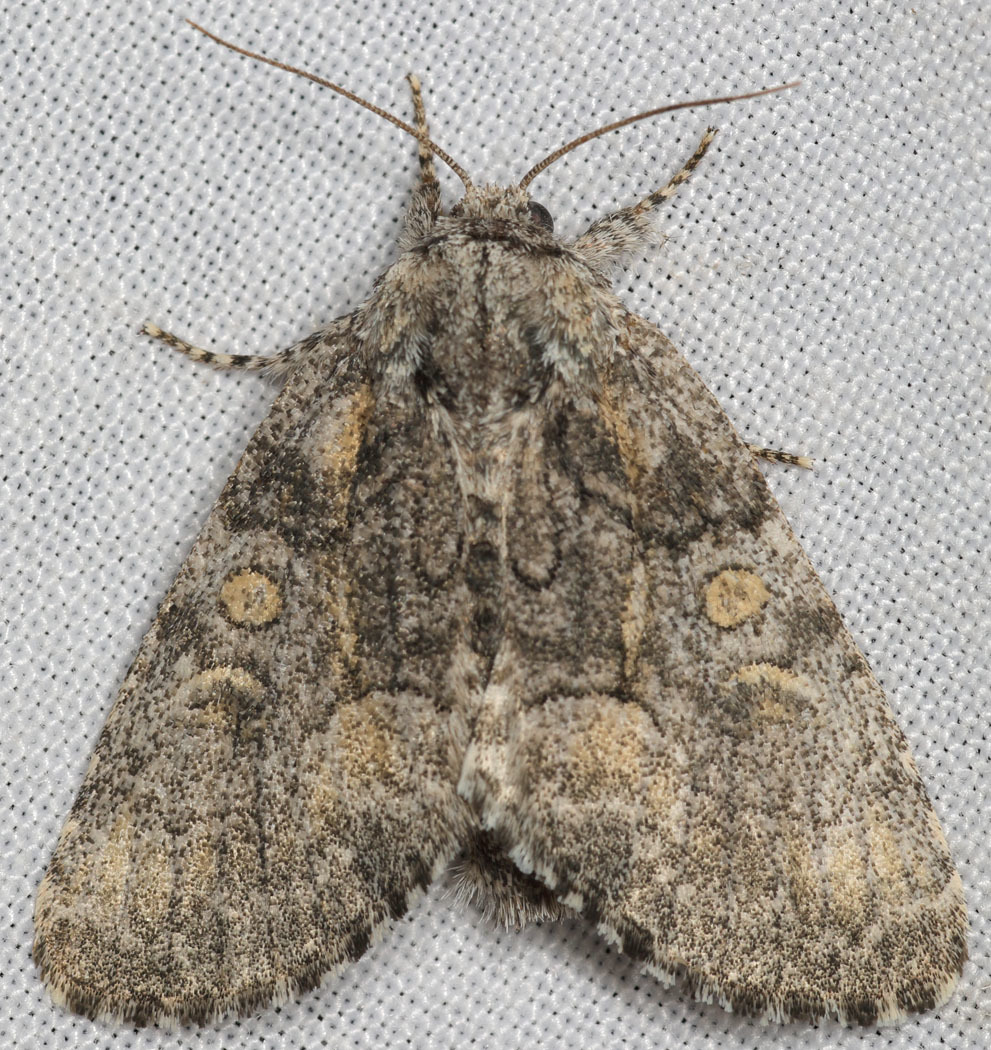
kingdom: Animalia
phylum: Arthropoda
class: Insecta
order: Lepidoptera
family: Noctuidae
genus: Raphia
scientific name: Raphia frater
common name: Brother
